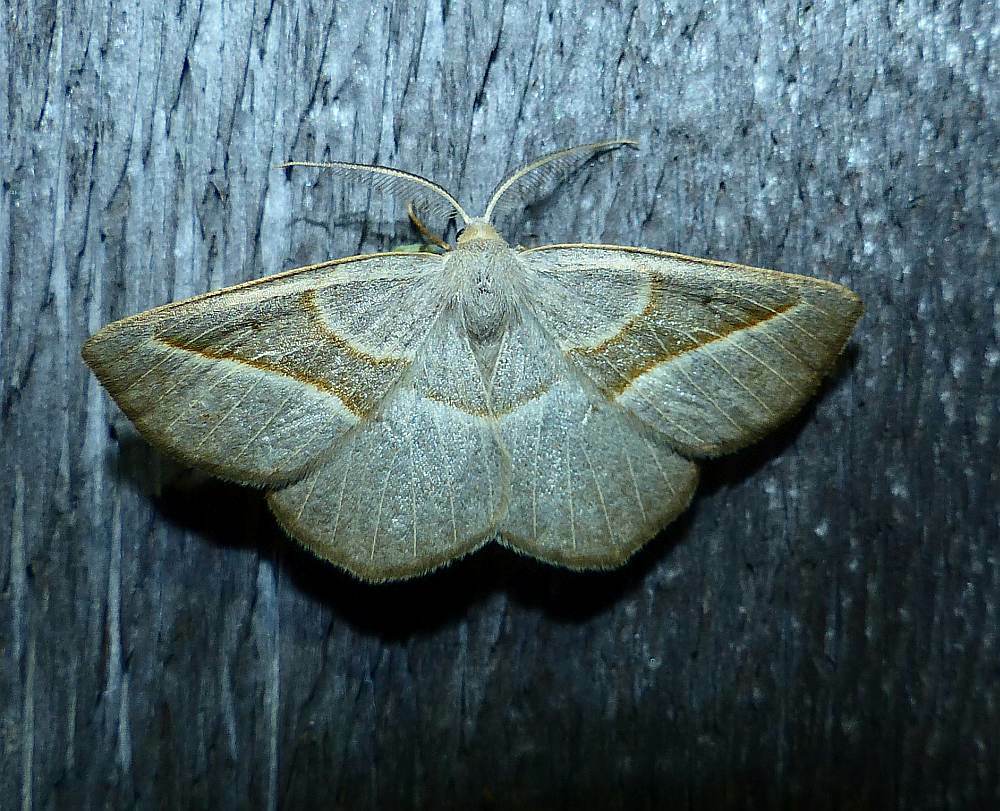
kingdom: Animalia
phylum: Arthropoda
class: Insecta
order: Lepidoptera
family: Geometridae
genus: Eusarca
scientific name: Eusarca confusaria
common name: Confused eusarca
